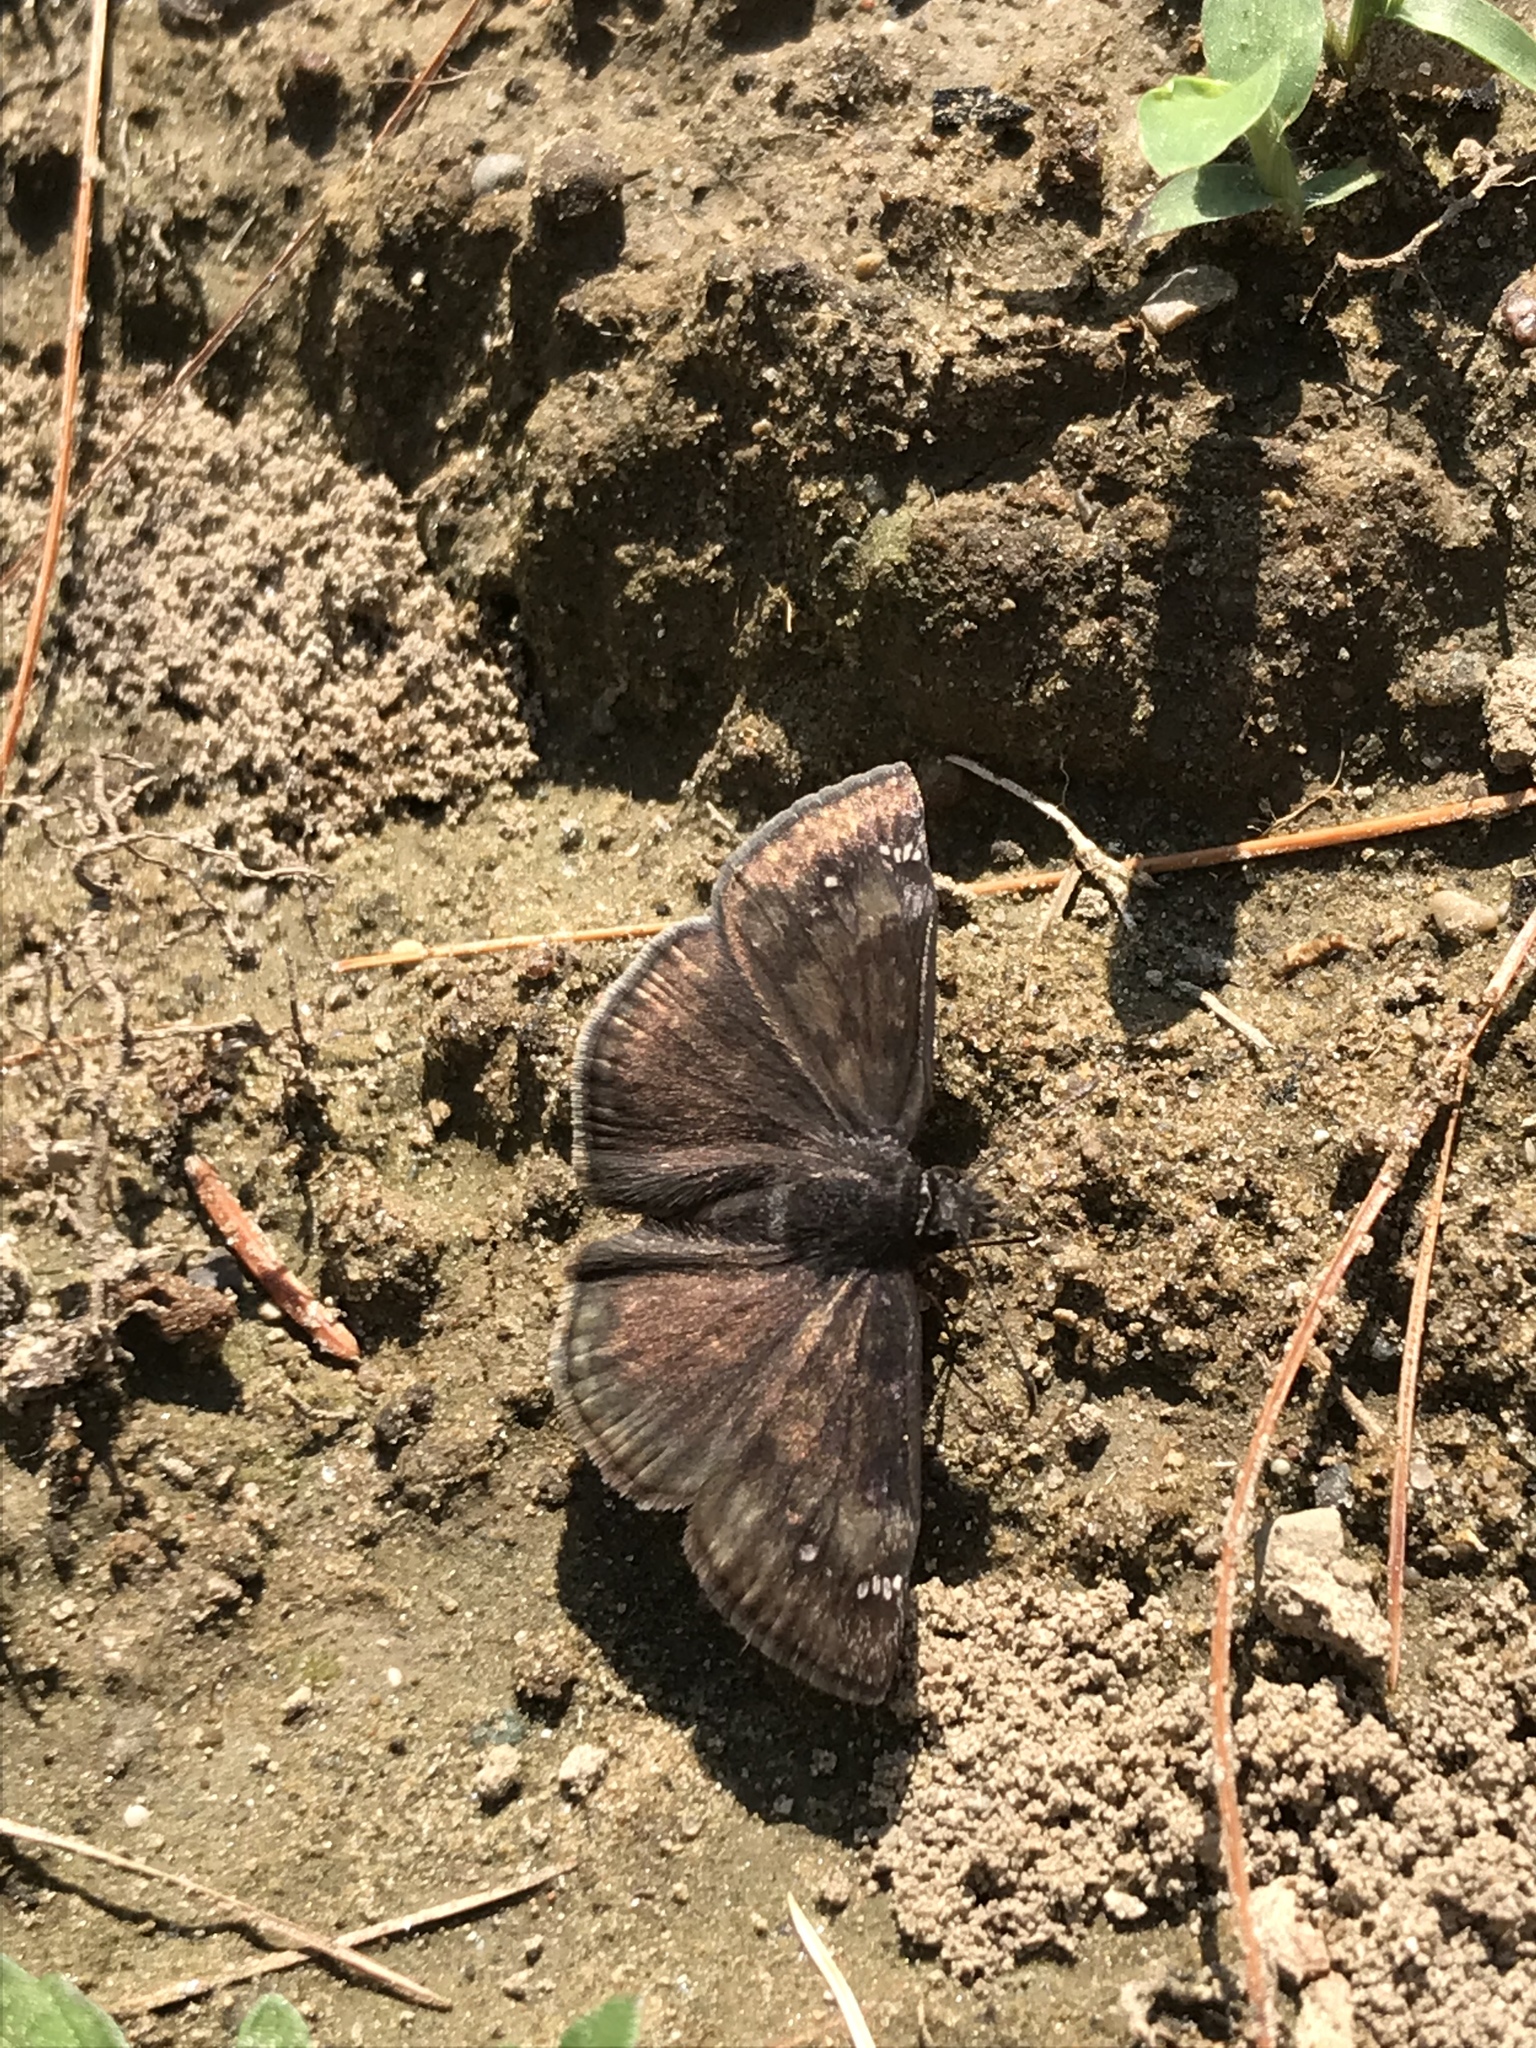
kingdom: Animalia
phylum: Arthropoda
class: Insecta
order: Lepidoptera
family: Hesperiidae
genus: Erynnis
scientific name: Erynnis baptisiae
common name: Wild indigo duskywing
